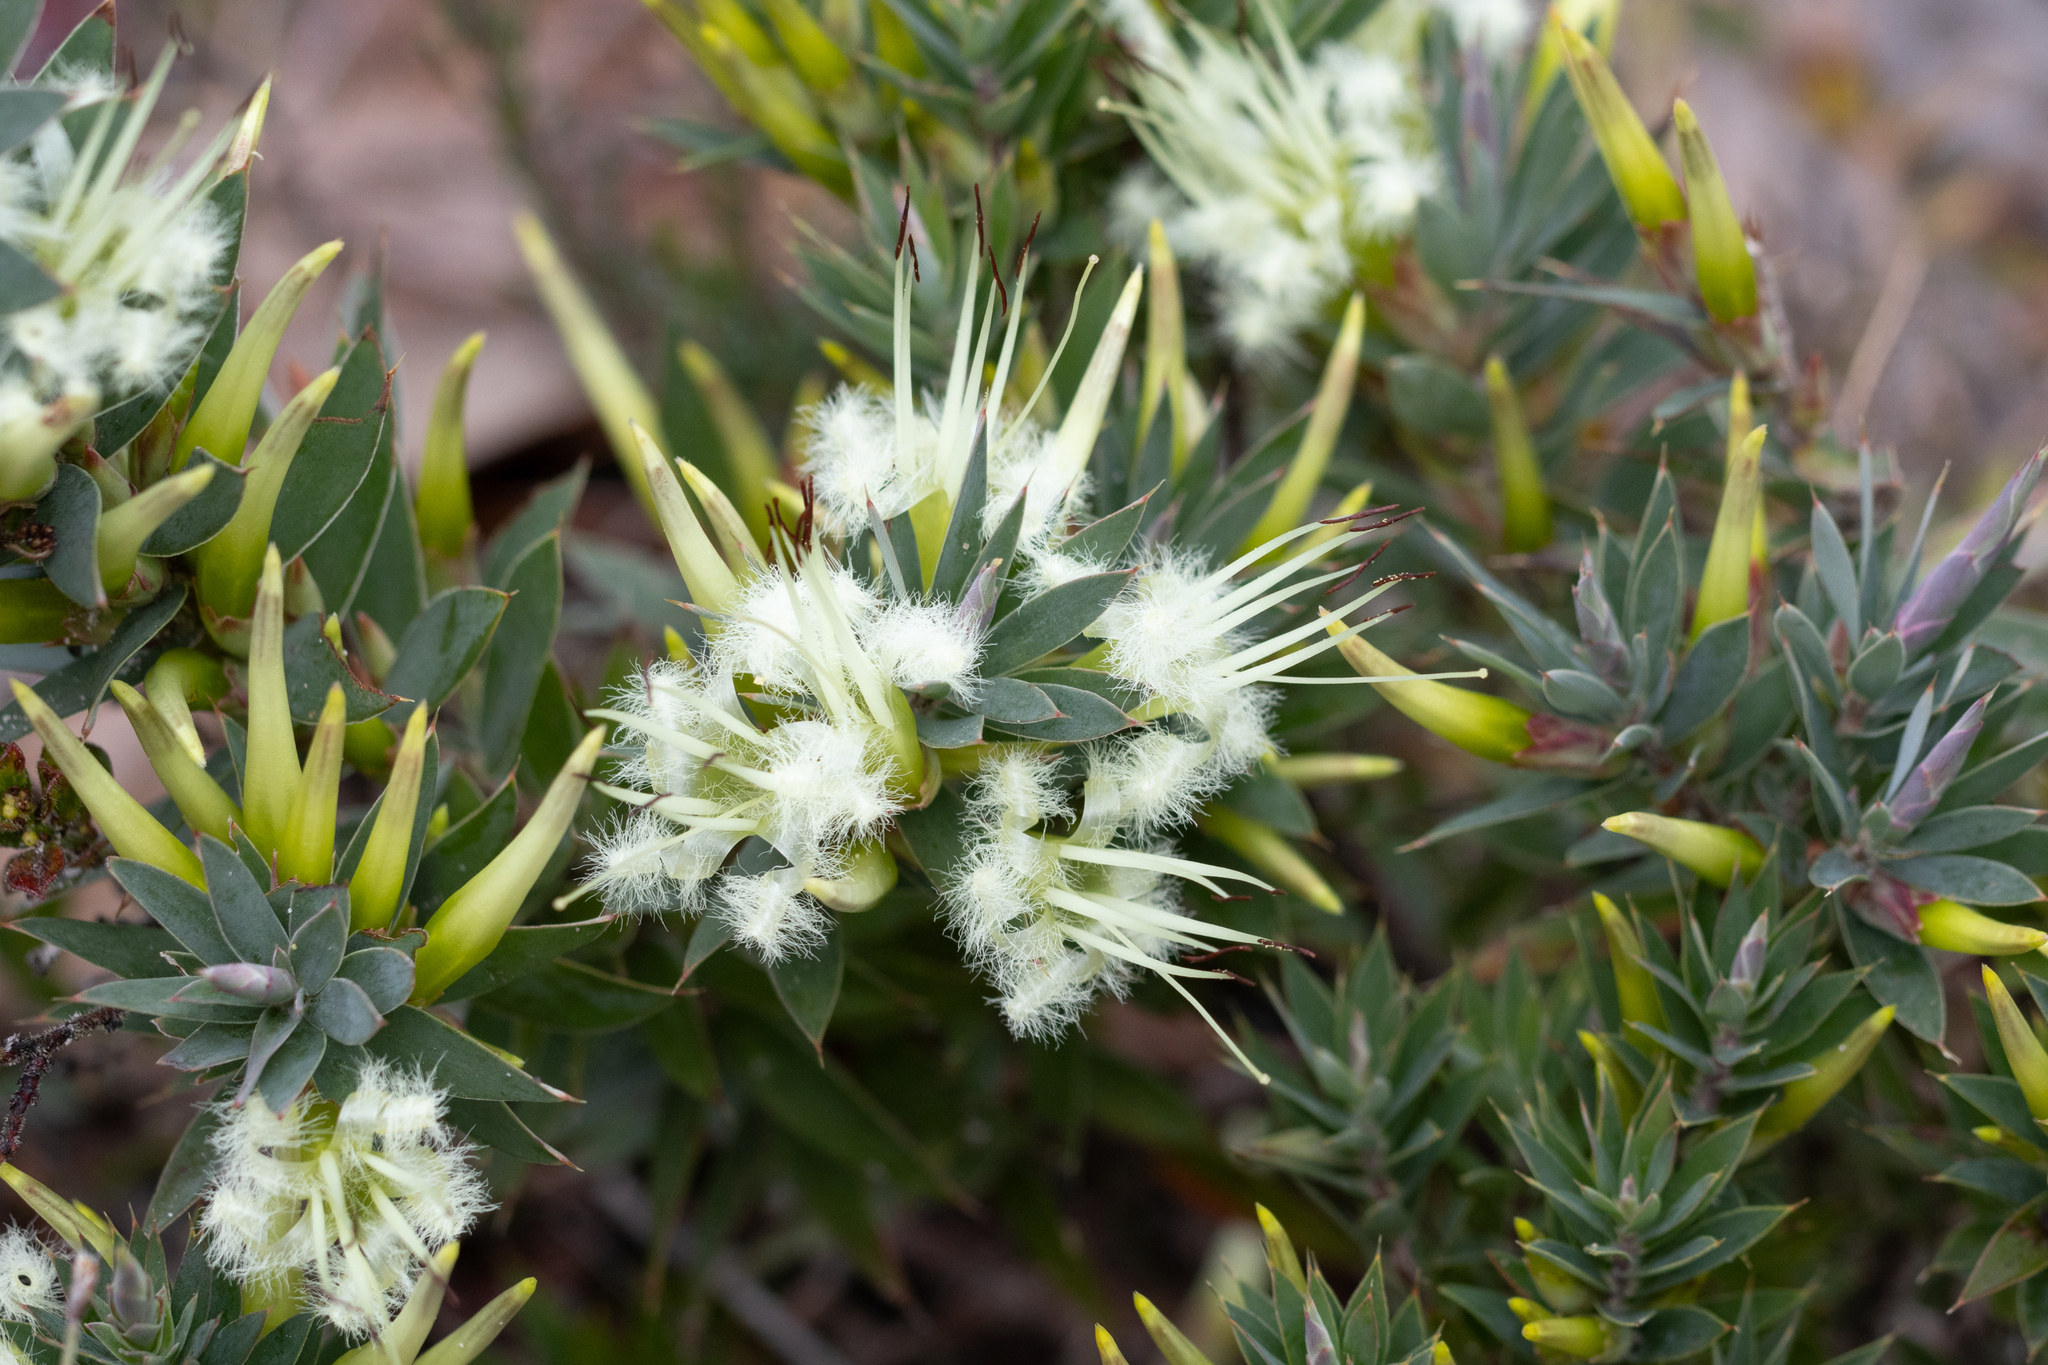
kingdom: Plantae
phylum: Tracheophyta
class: Magnoliopsida
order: Ericales
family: Ericaceae
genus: Styphelia
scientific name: Styphelia adscendens
